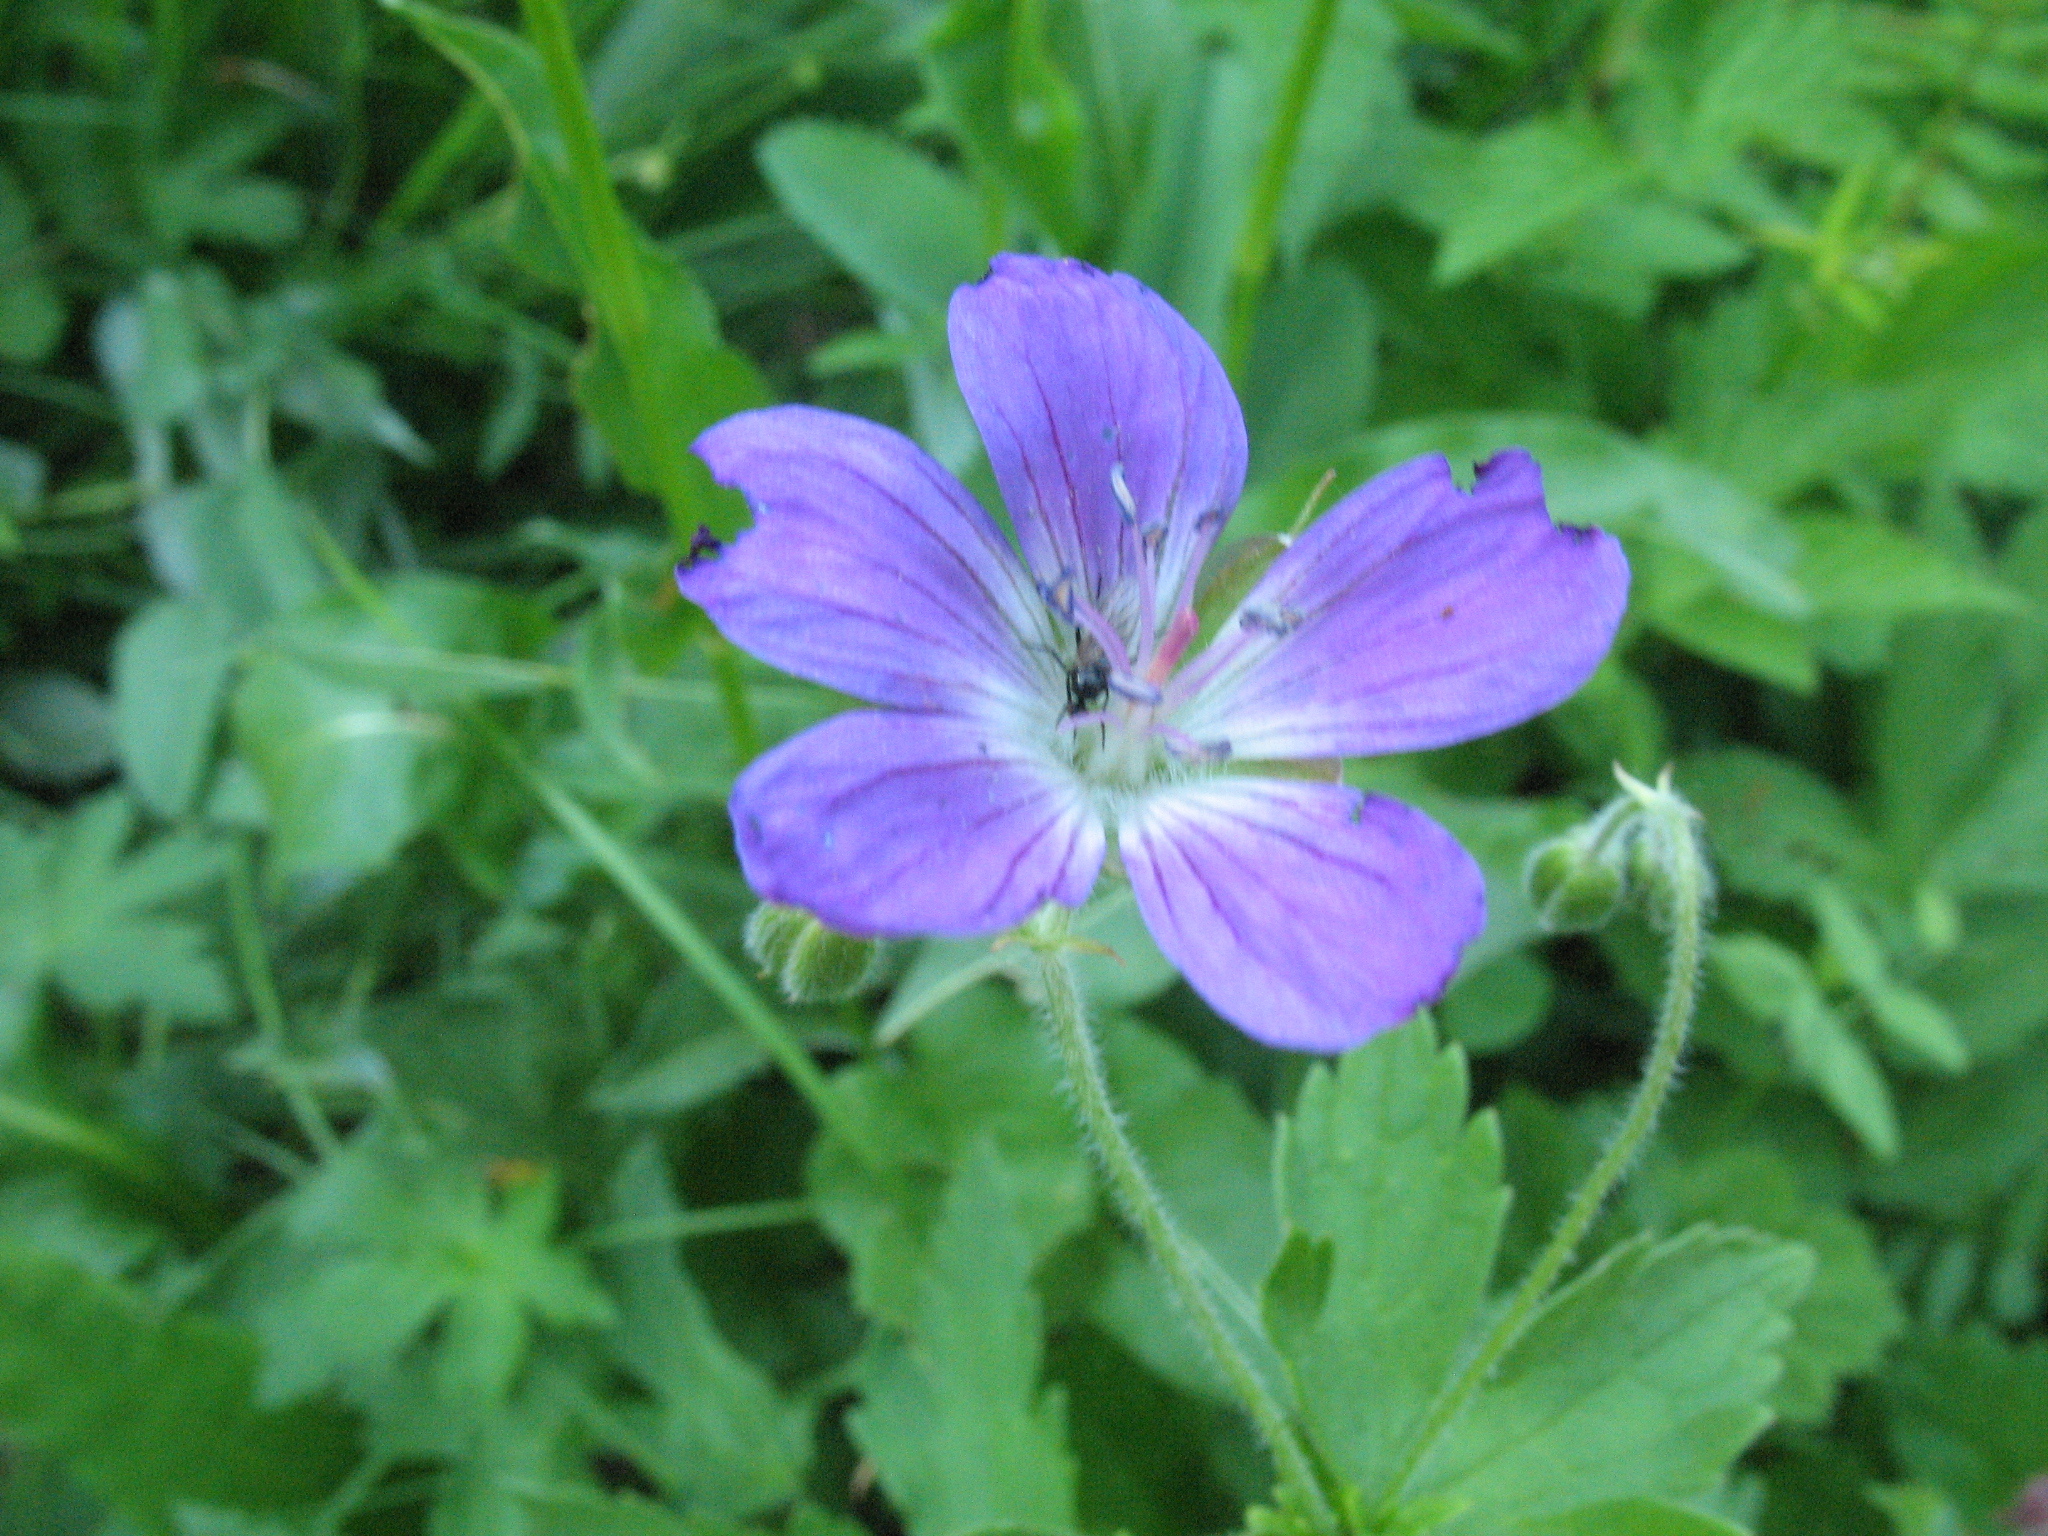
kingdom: Plantae
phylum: Tracheophyta
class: Magnoliopsida
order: Geraniales
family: Geraniaceae
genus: Geranium
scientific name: Geranium sylvaticum
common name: Wood crane's-bill
